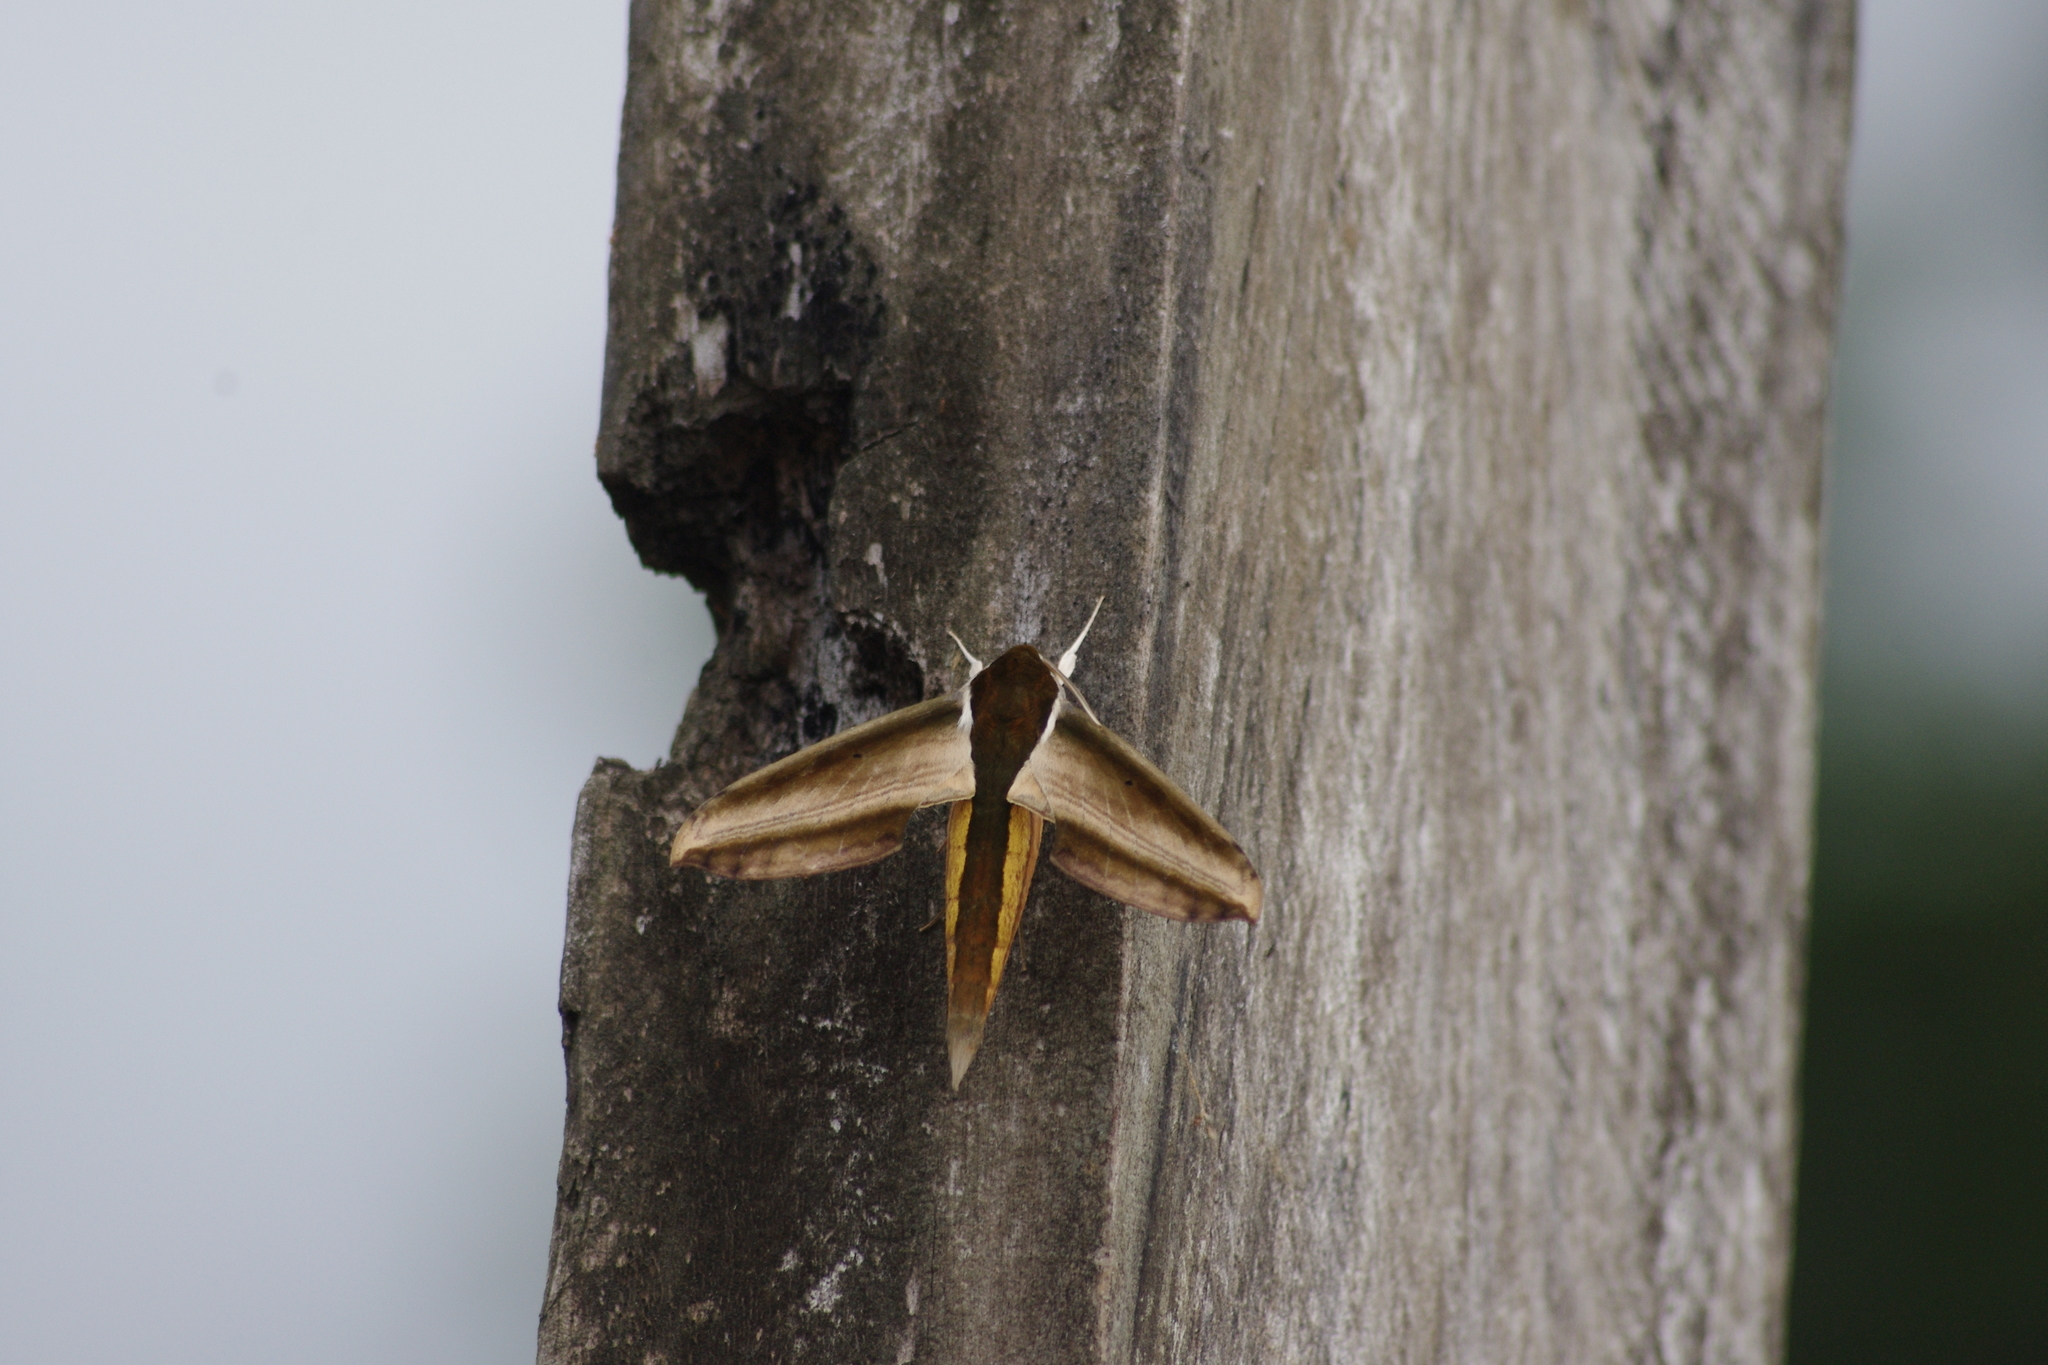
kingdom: Animalia
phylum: Arthropoda
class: Insecta
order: Lepidoptera
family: Sphingidae
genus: Theretra
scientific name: Theretra nessus
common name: Yam hawk moth
